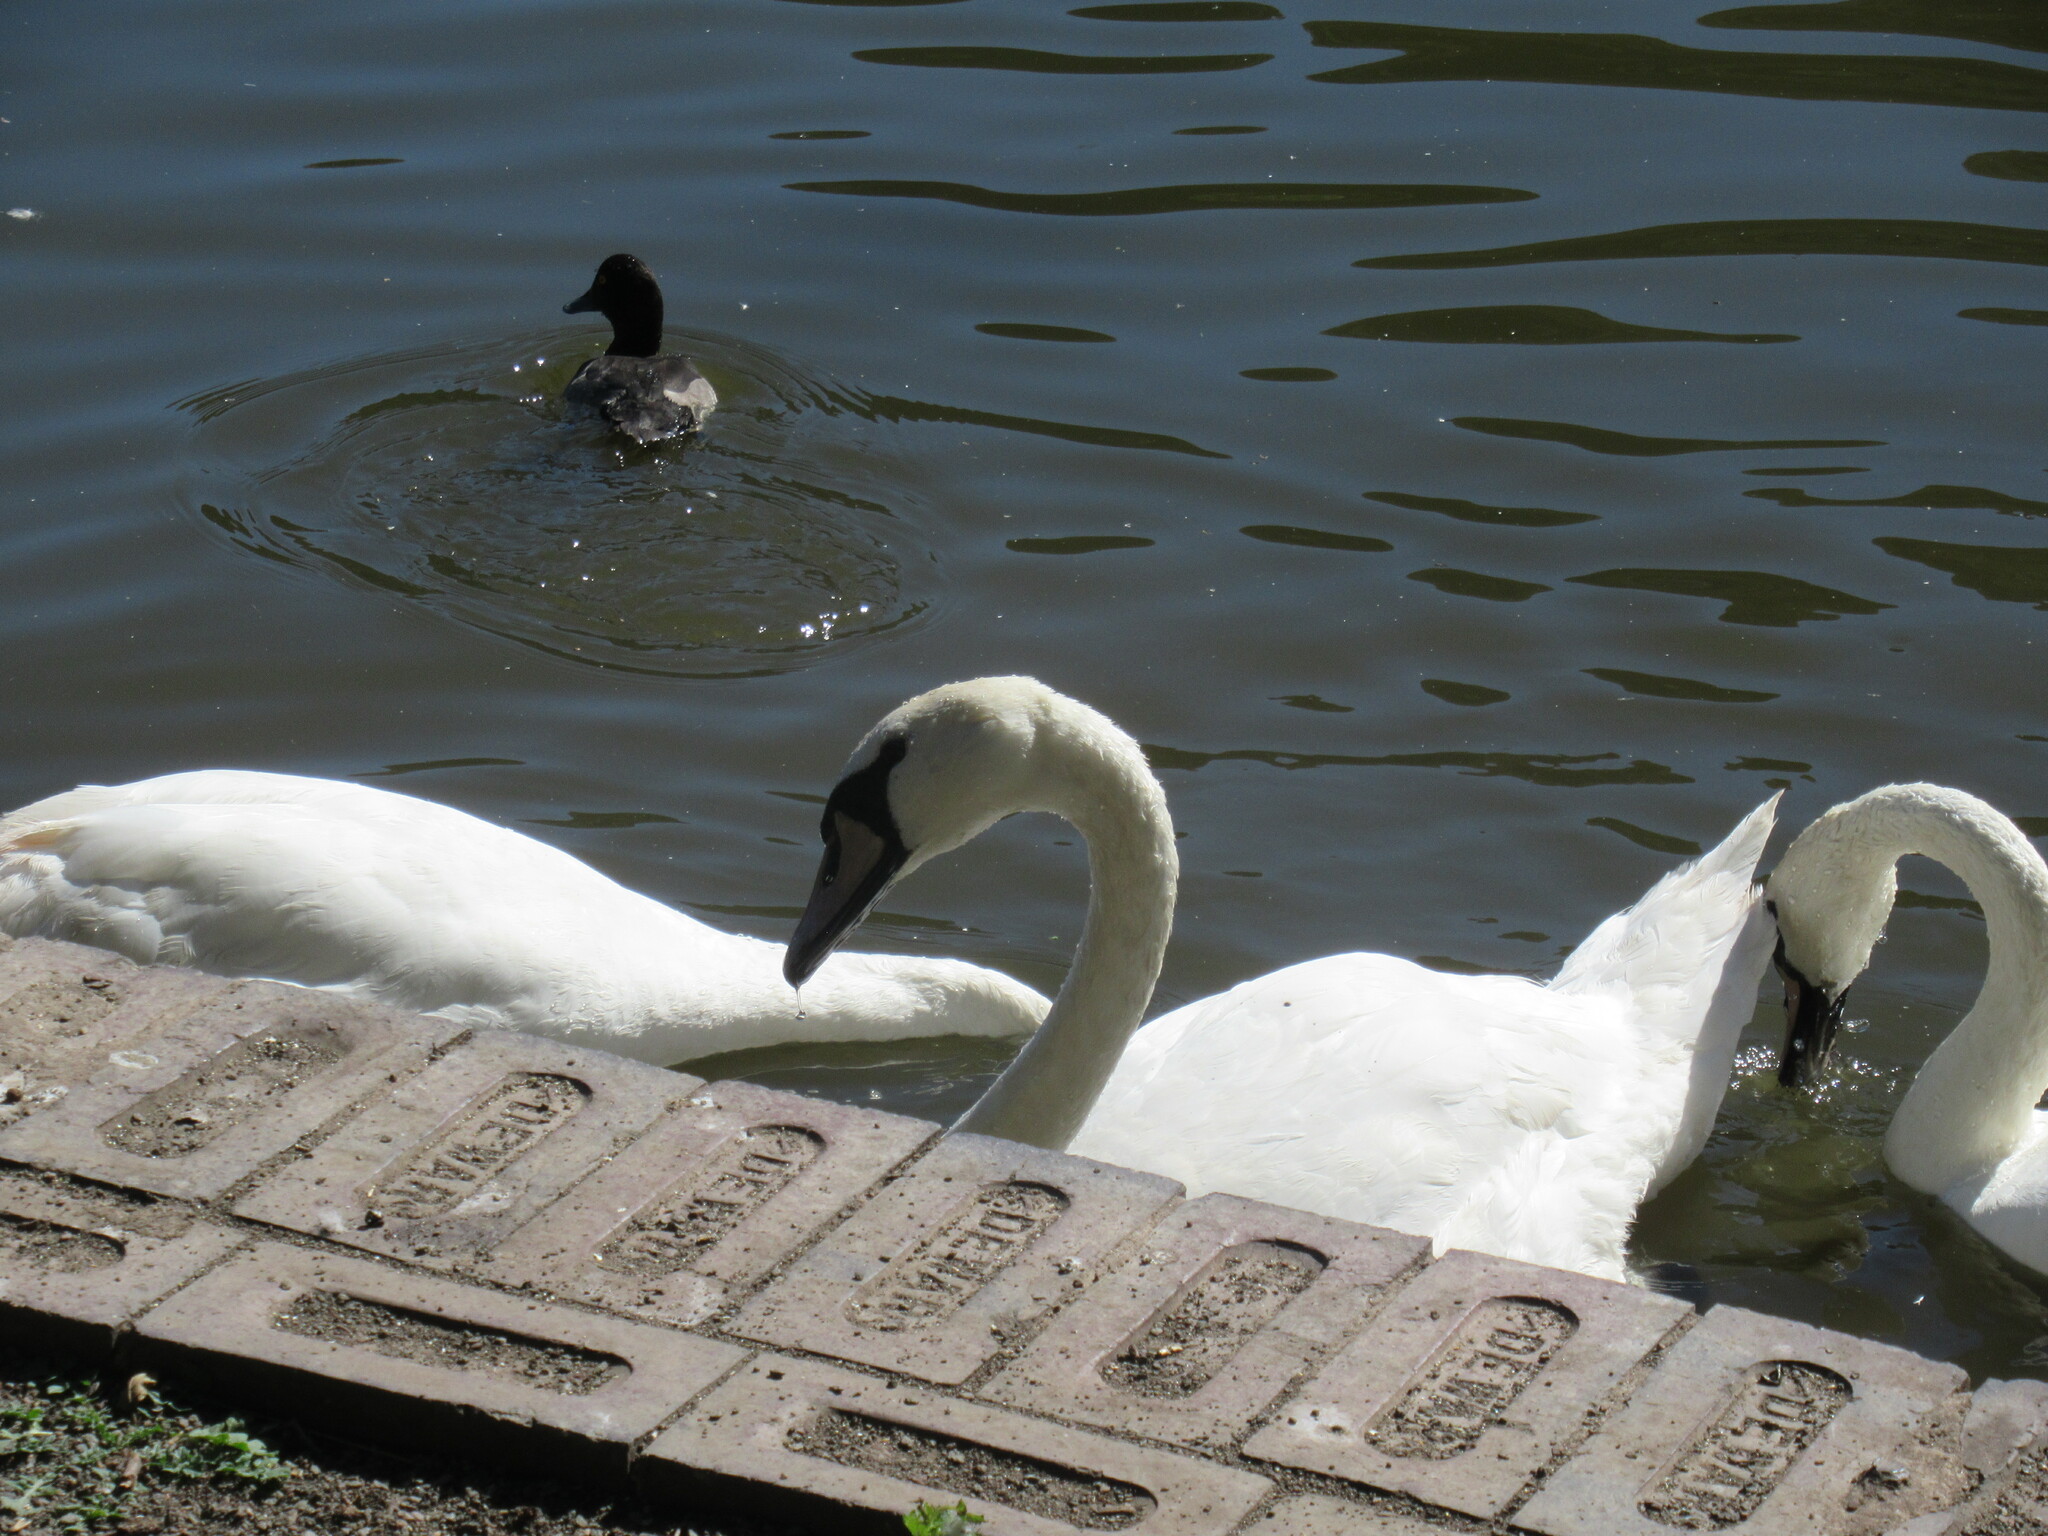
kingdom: Animalia
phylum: Chordata
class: Aves
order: Anseriformes
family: Anatidae
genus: Cygnus
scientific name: Cygnus olor
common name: Mute swan
